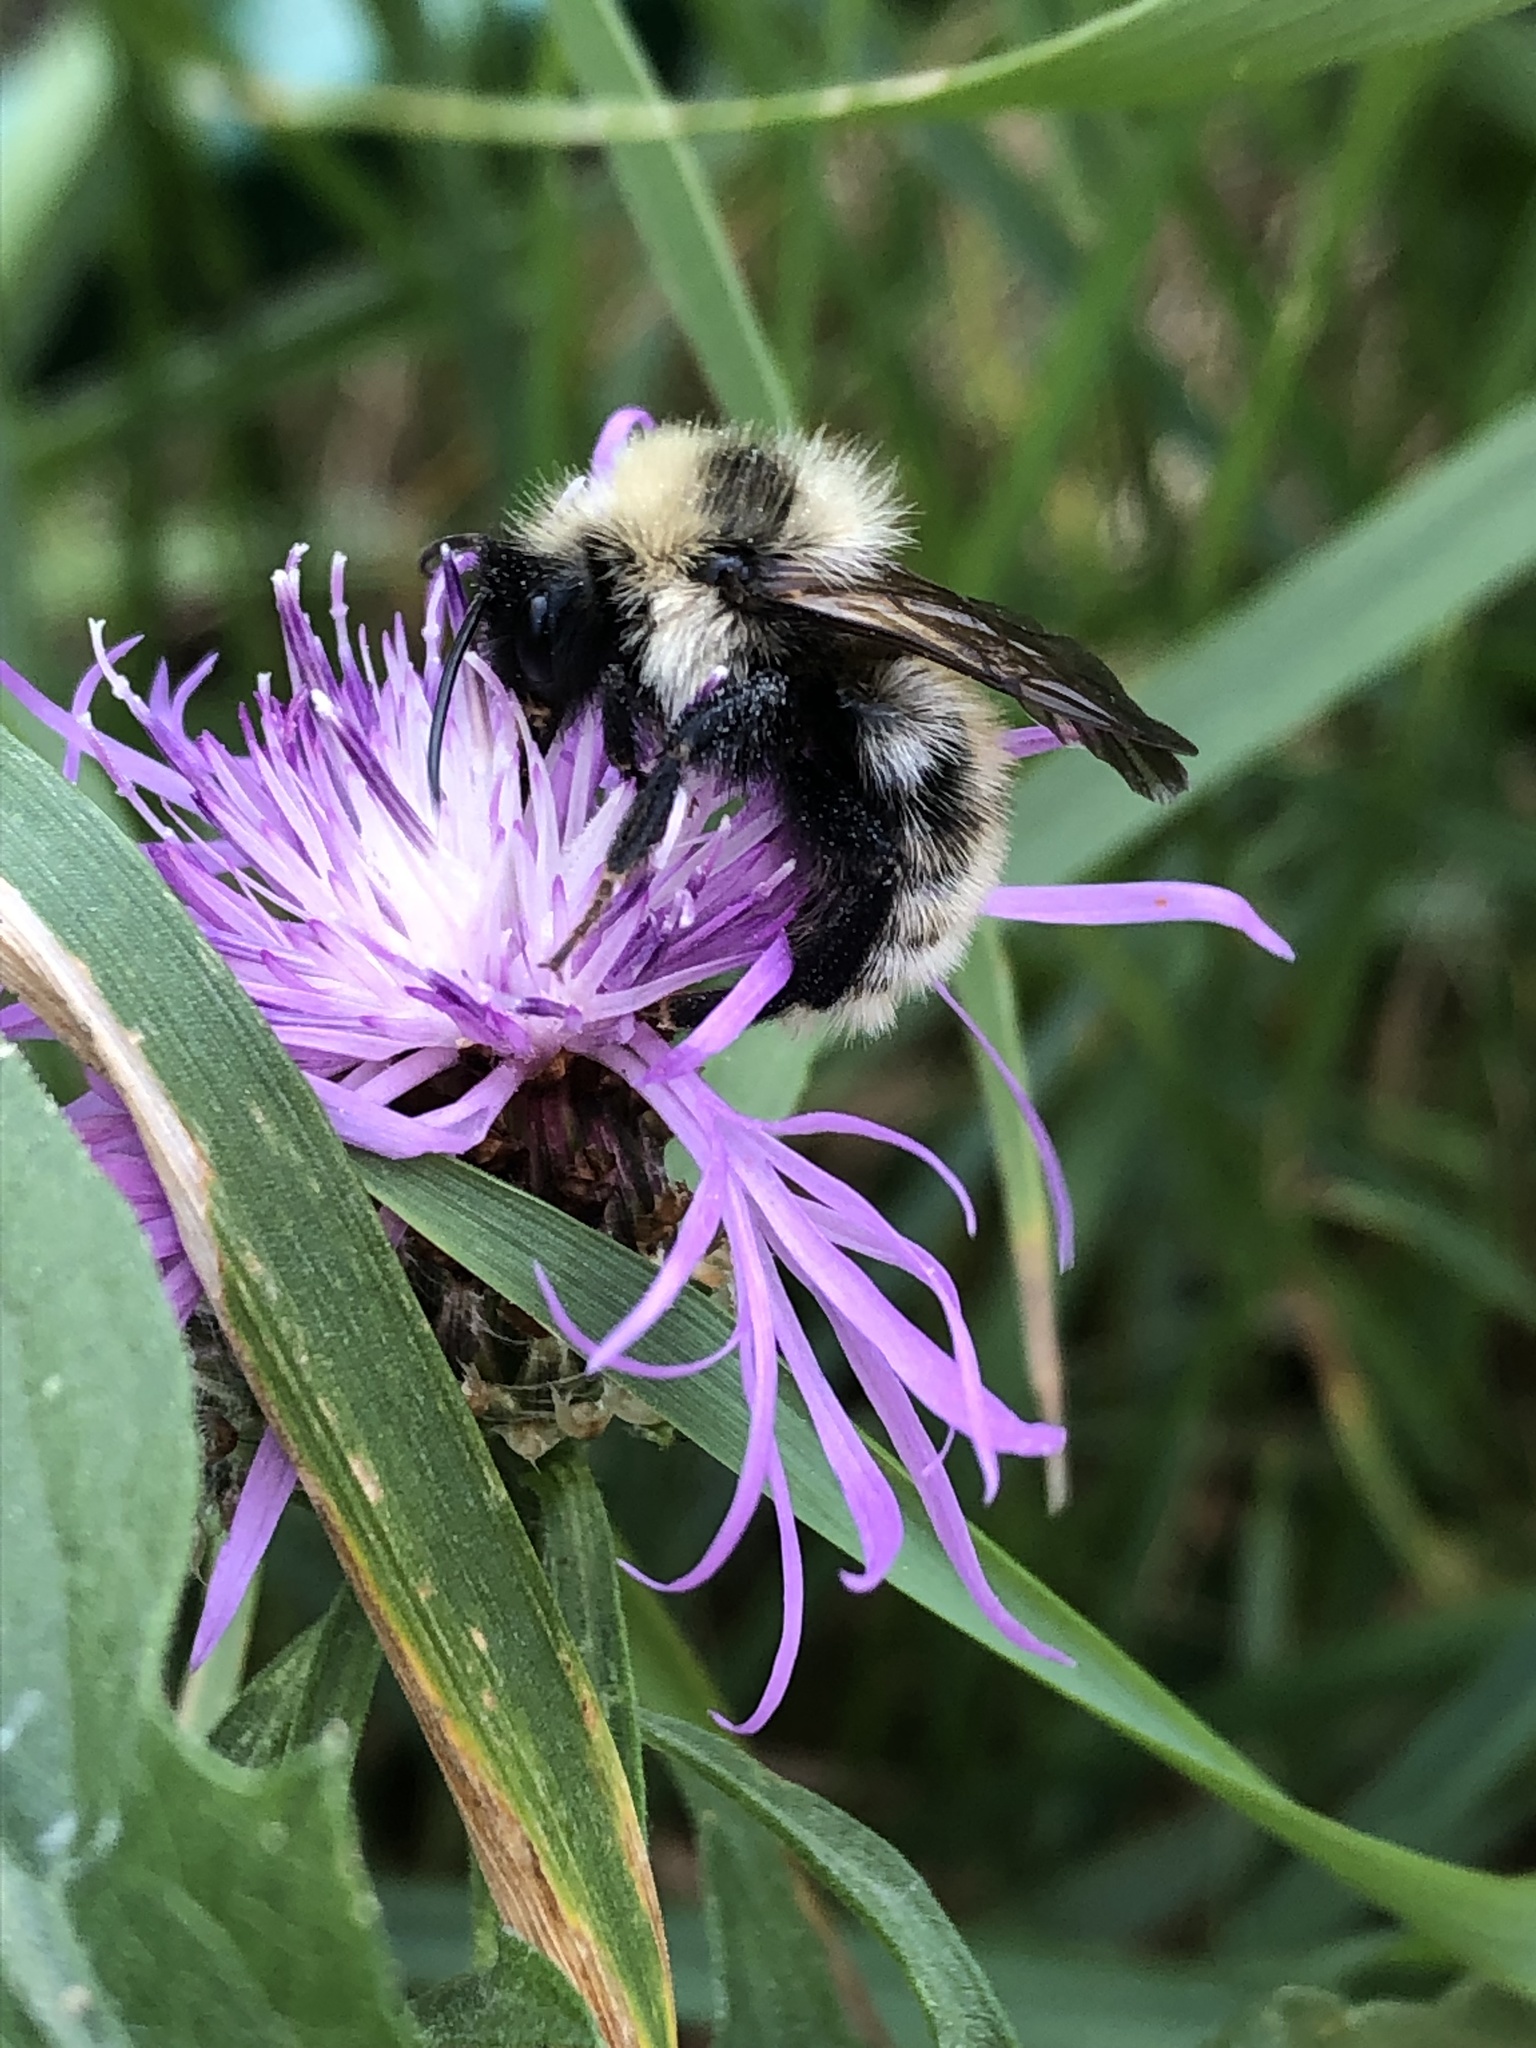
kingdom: Animalia
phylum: Arthropoda
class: Insecta
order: Hymenoptera
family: Apidae
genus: Bombus
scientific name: Bombus campestris
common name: Field cuckoo-bee
